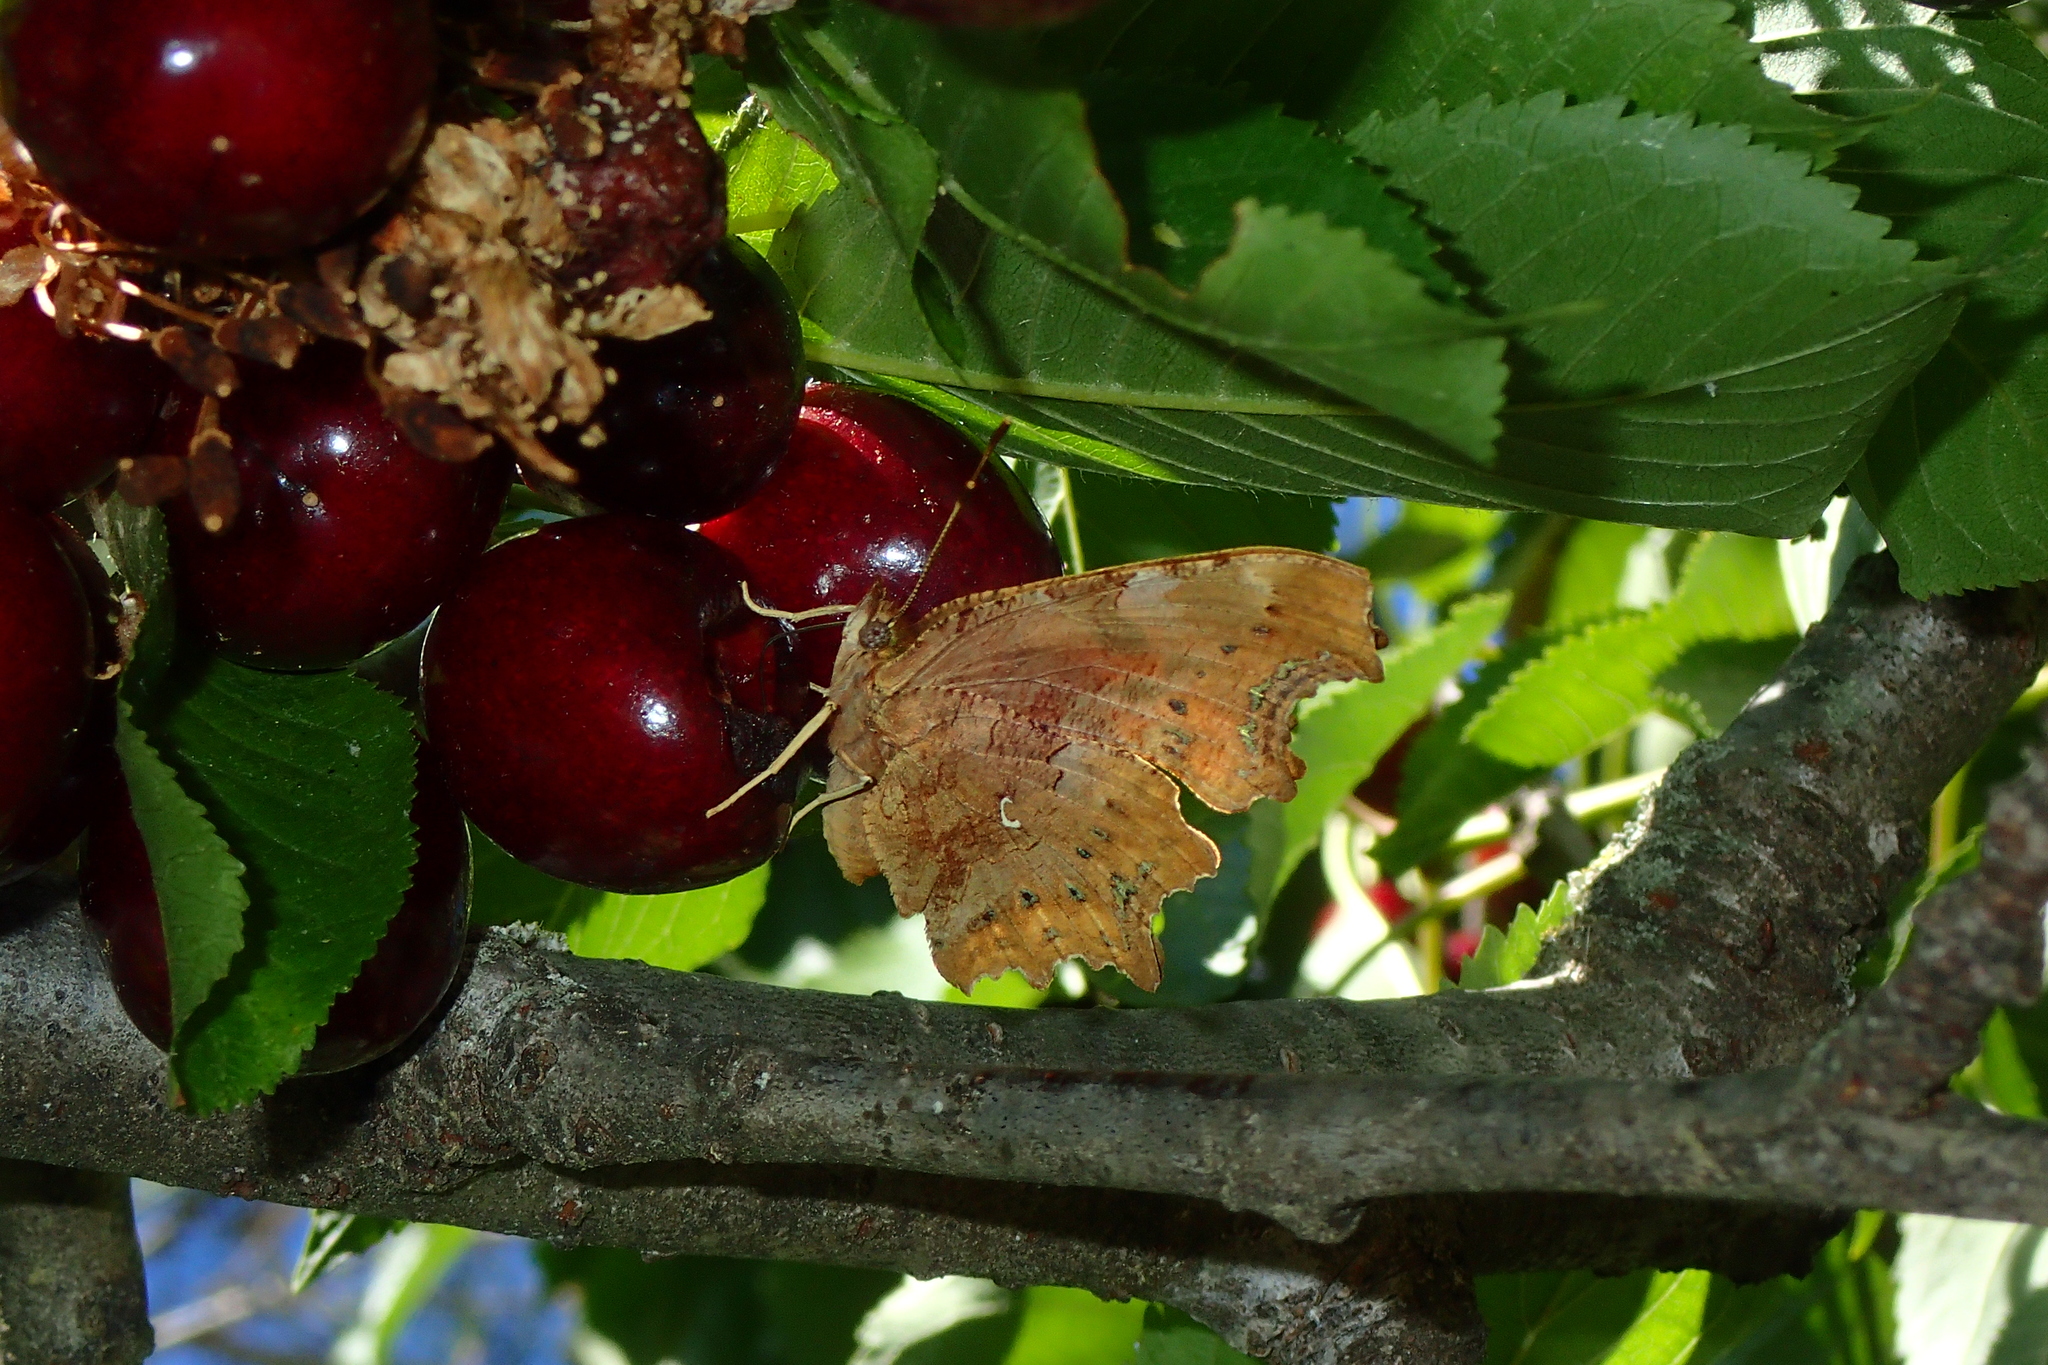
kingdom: Animalia
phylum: Arthropoda
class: Insecta
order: Lepidoptera
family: Nymphalidae
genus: Polygonia
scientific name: Polygonia c-album
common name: Comma
